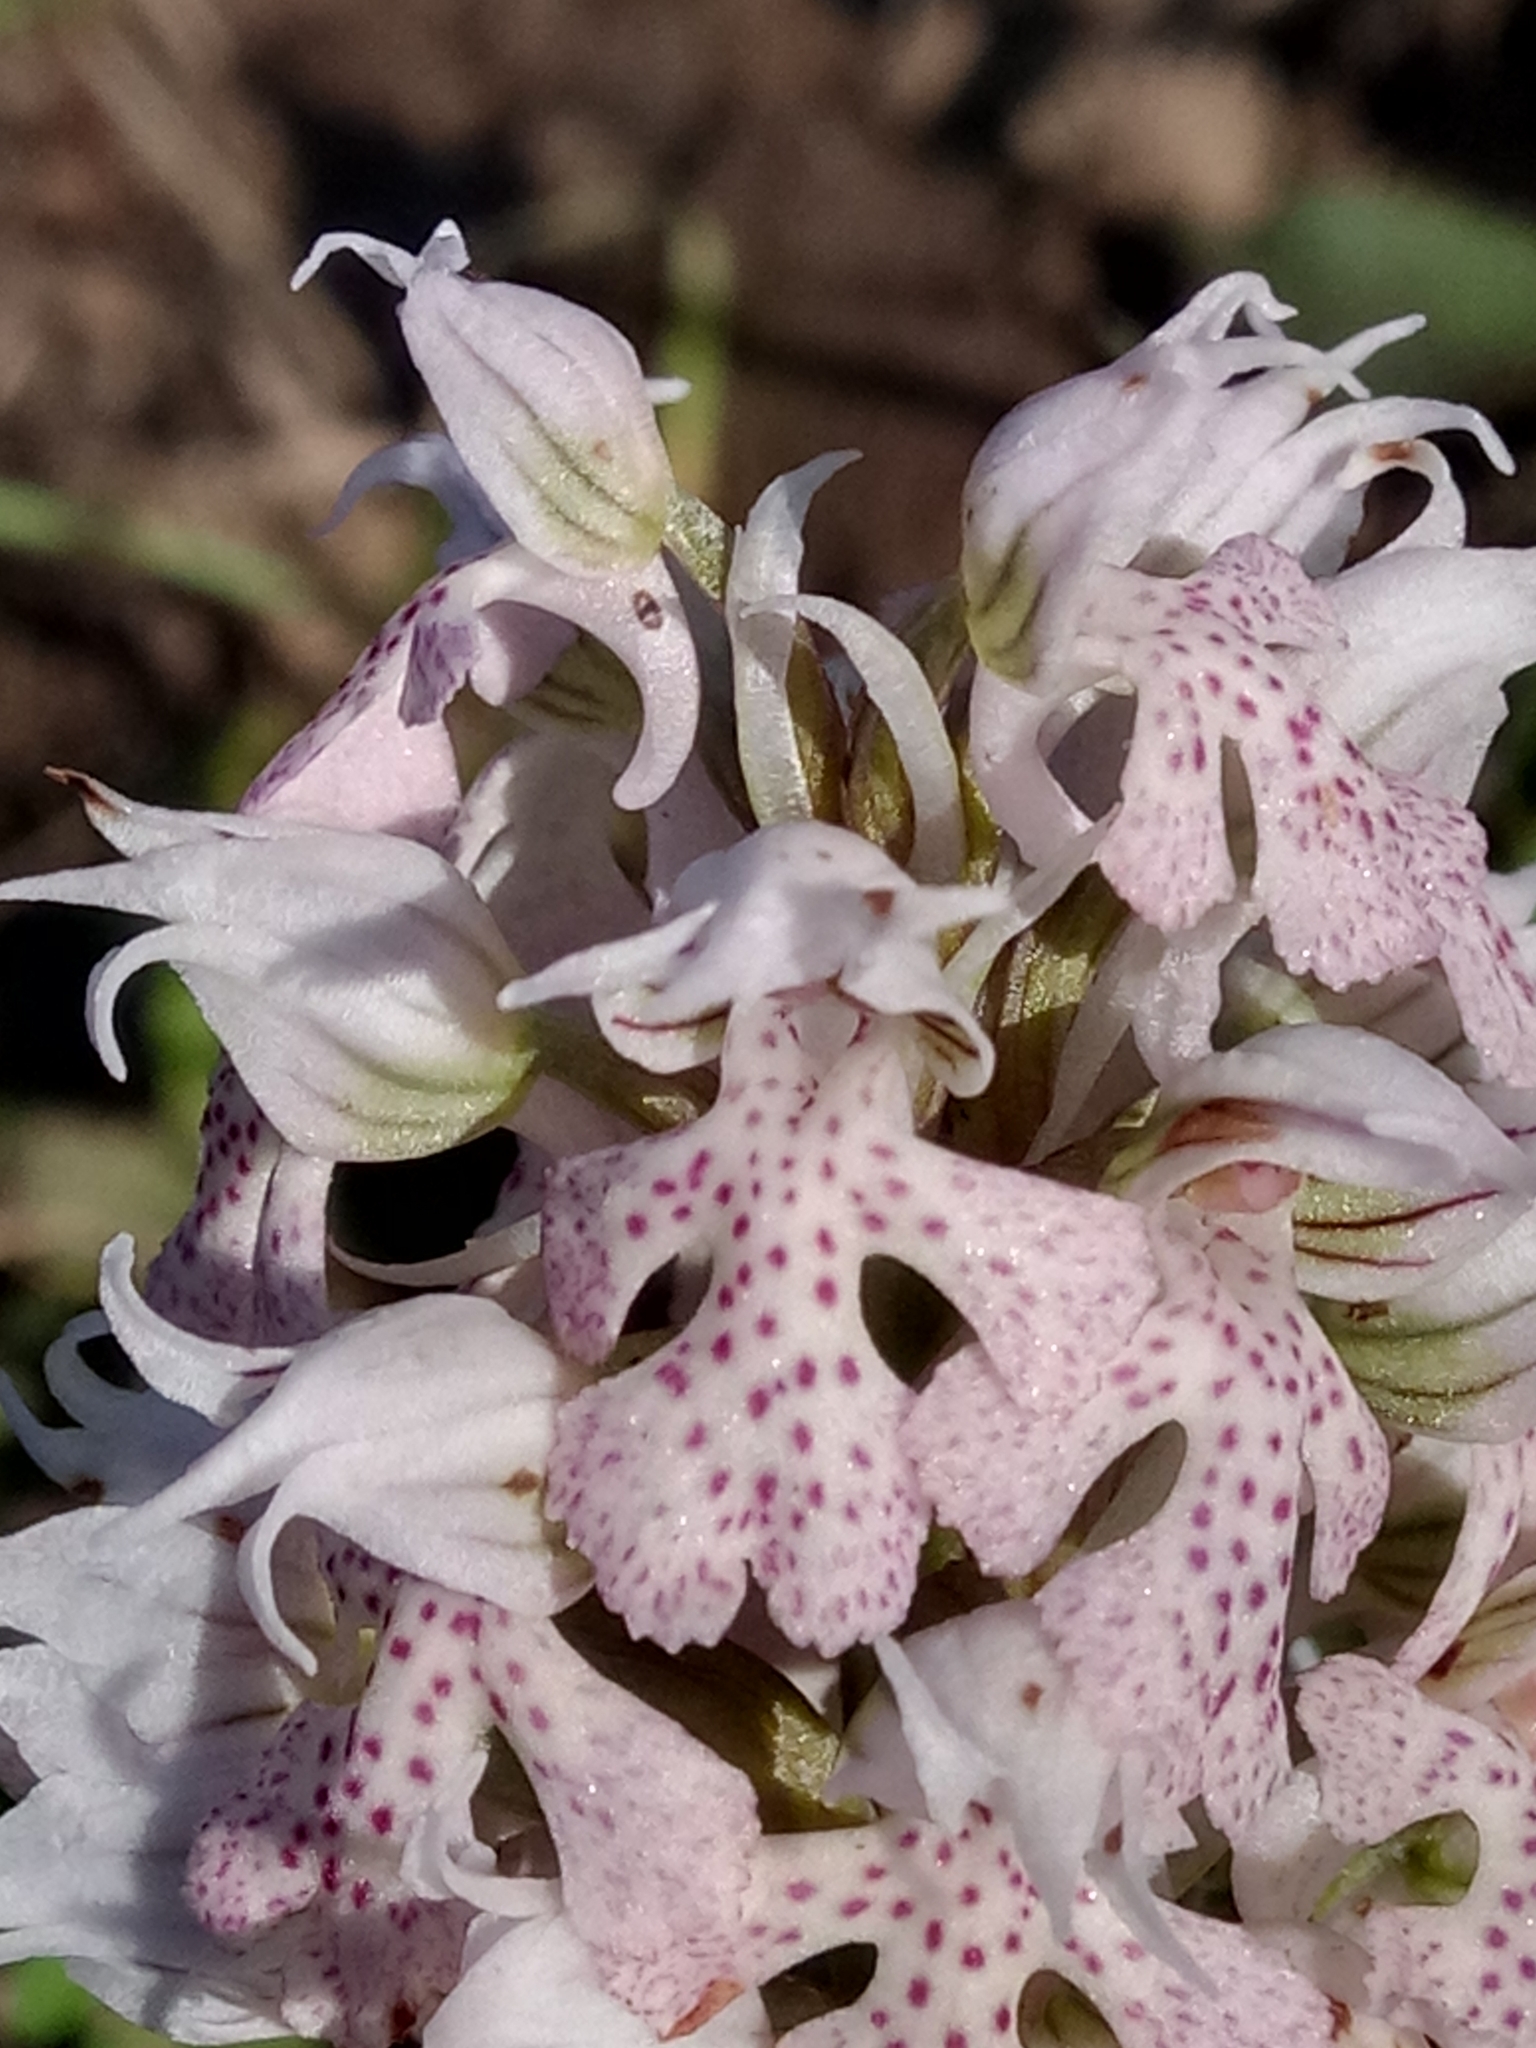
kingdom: Plantae
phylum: Tracheophyta
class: Liliopsida
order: Asparagales
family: Orchidaceae
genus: Neotinea
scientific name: Neotinea lactea
